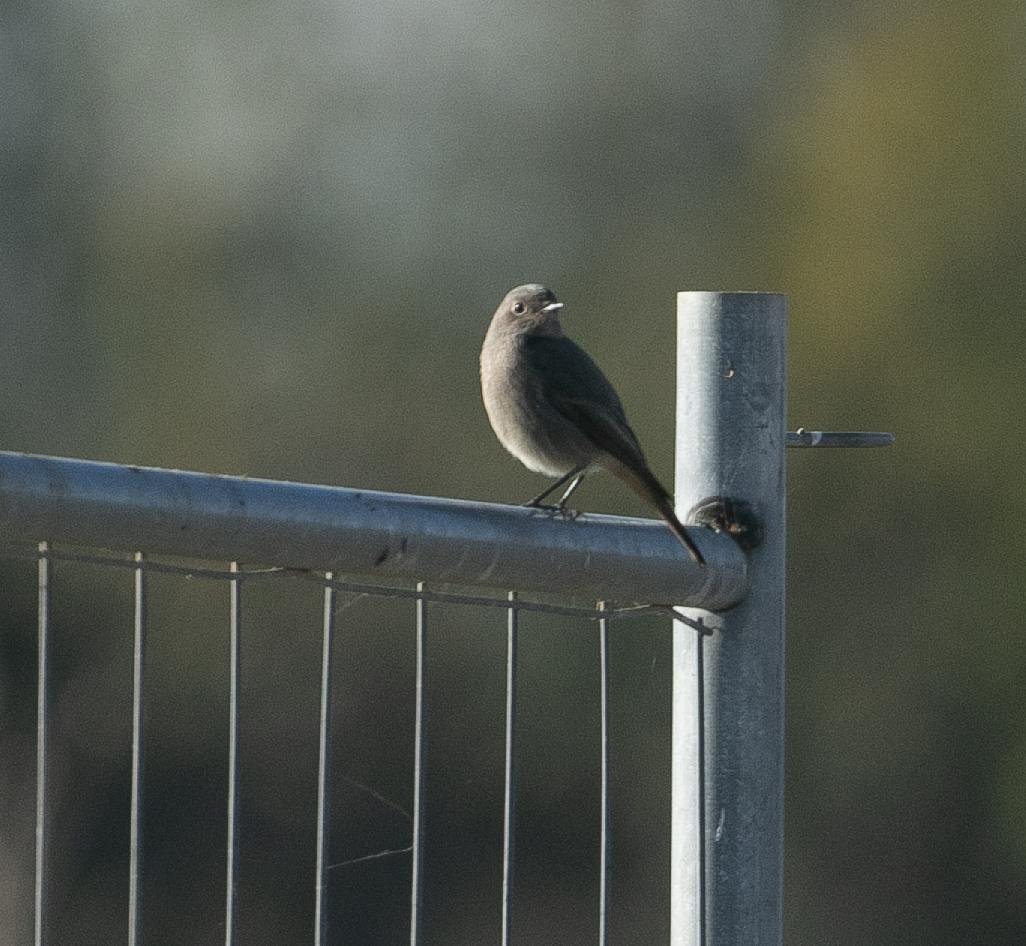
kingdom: Animalia
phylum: Chordata
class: Aves
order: Passeriformes
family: Muscicapidae
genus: Phoenicurus
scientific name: Phoenicurus ochruros
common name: Black redstart
